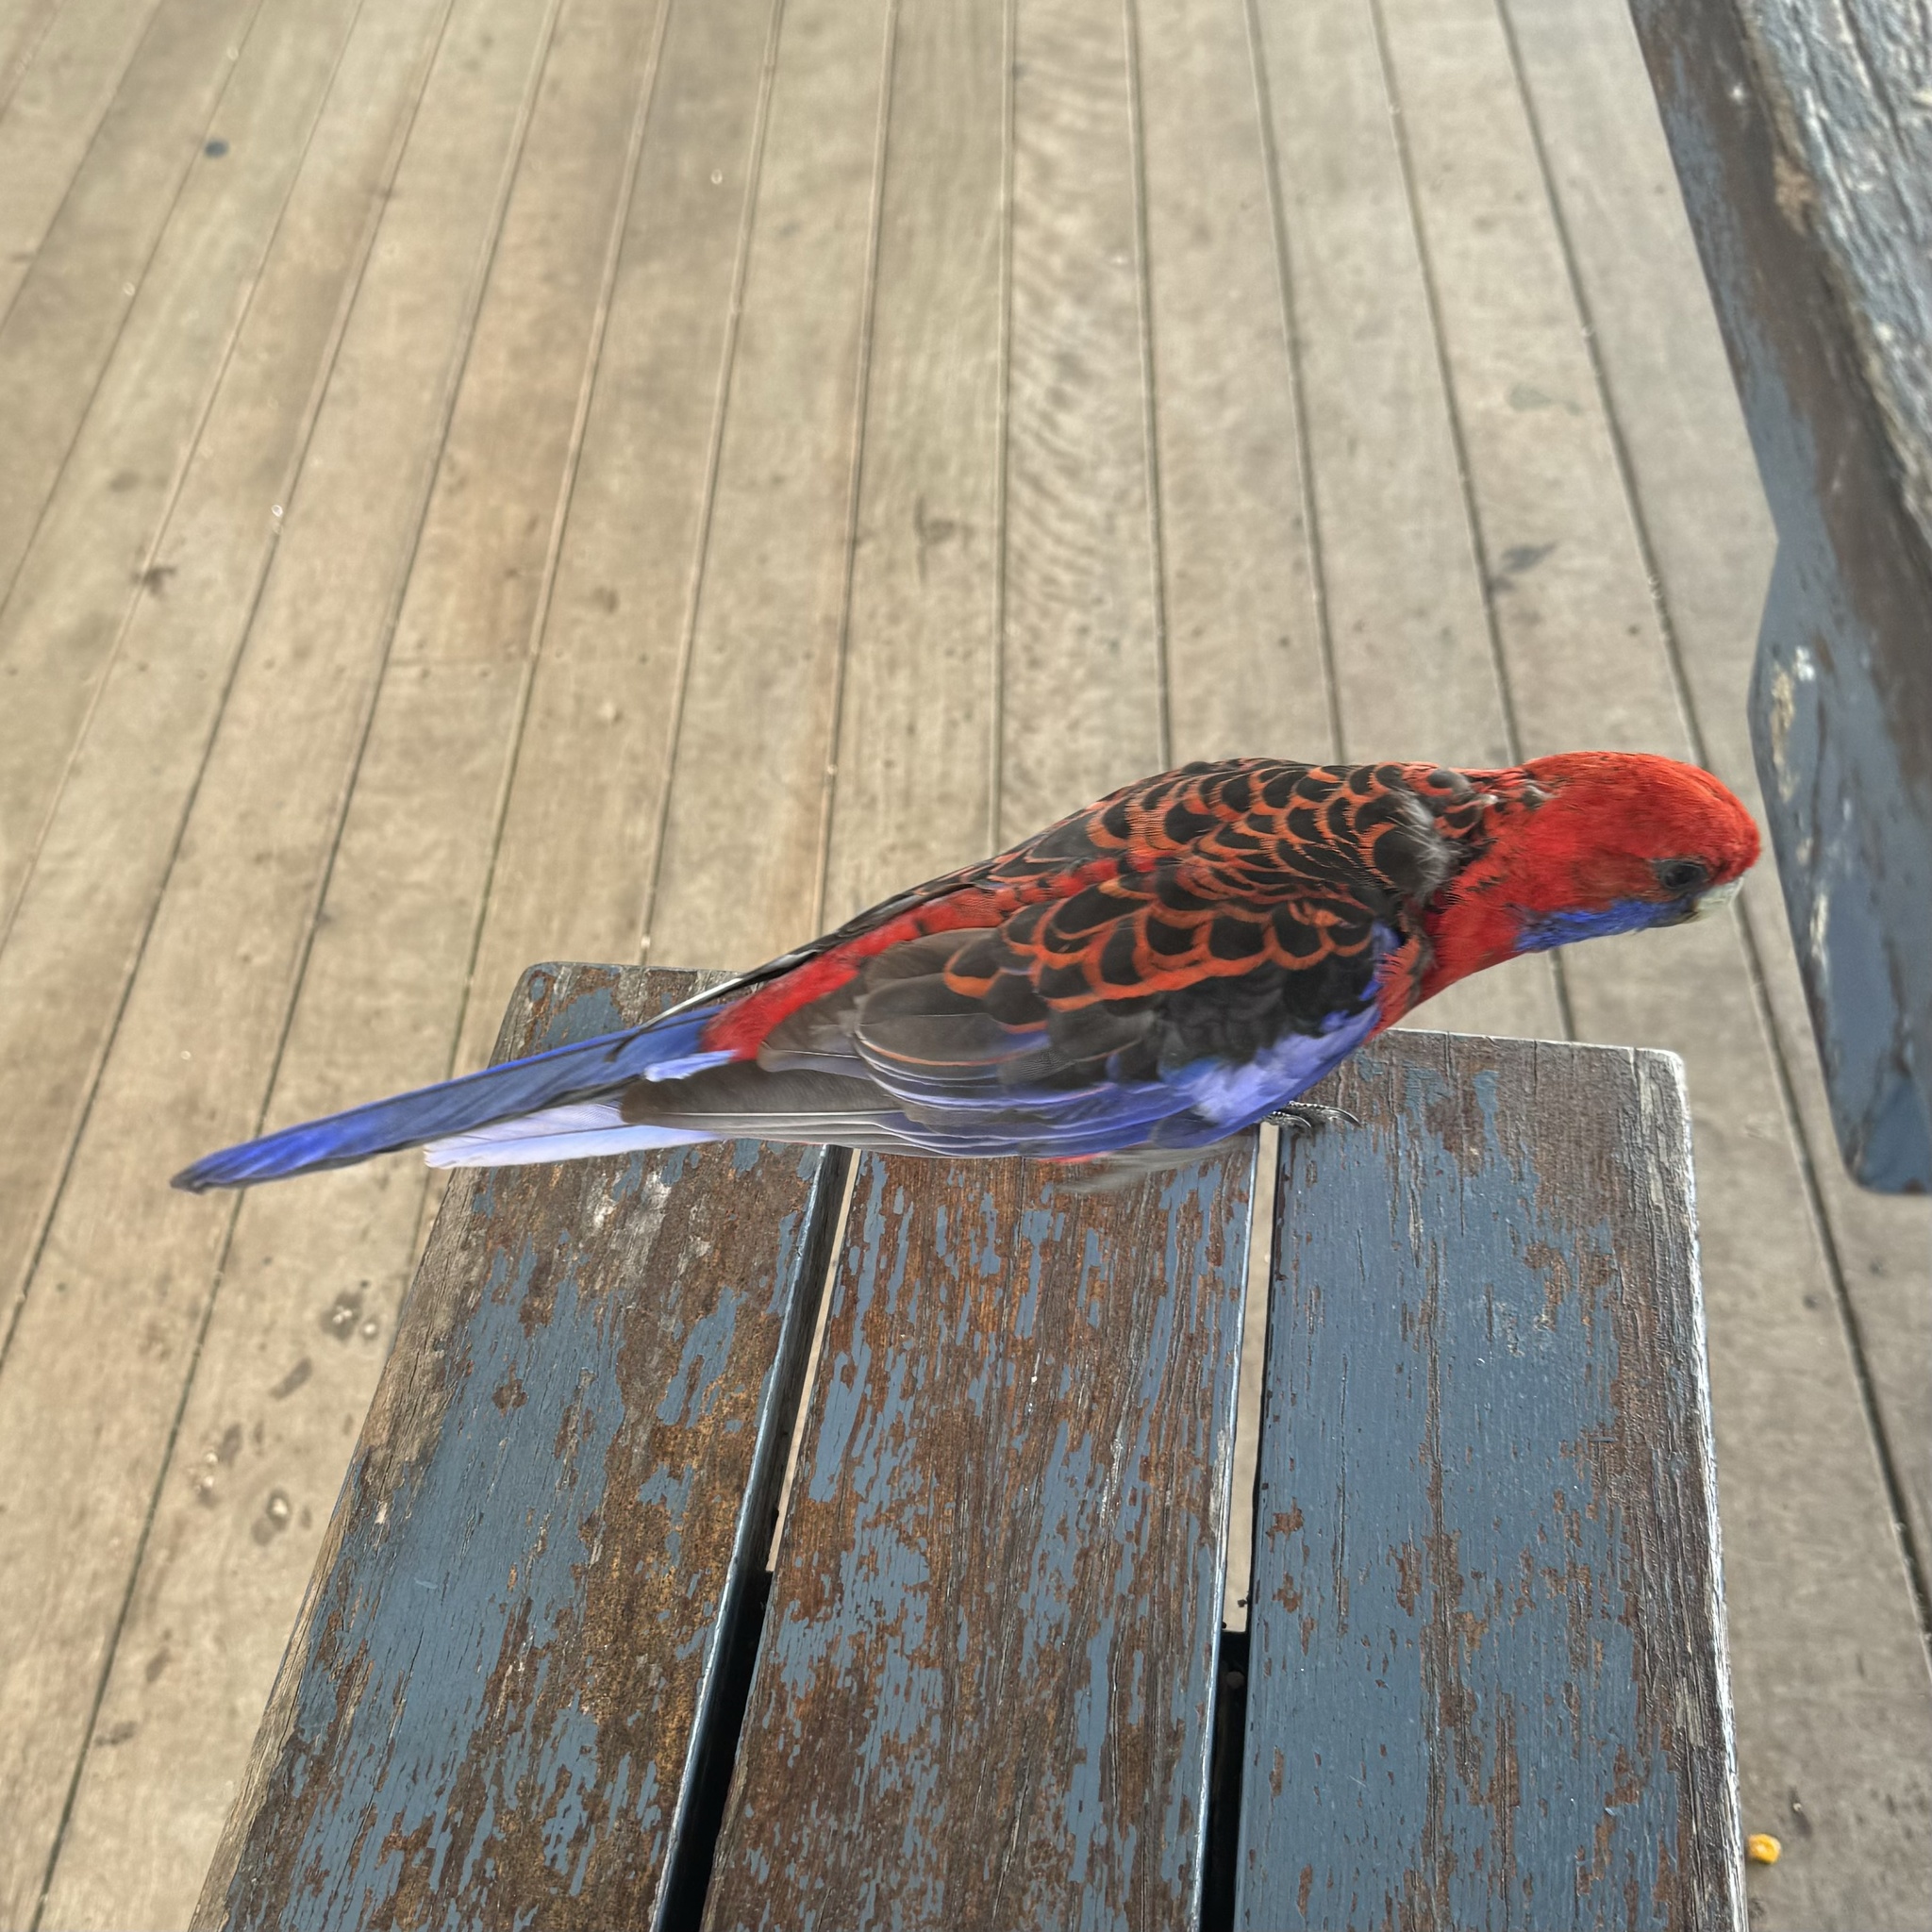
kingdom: Animalia
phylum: Chordata
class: Aves
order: Psittaciformes
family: Psittacidae
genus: Platycercus
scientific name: Platycercus elegans
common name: Crimson rosella
